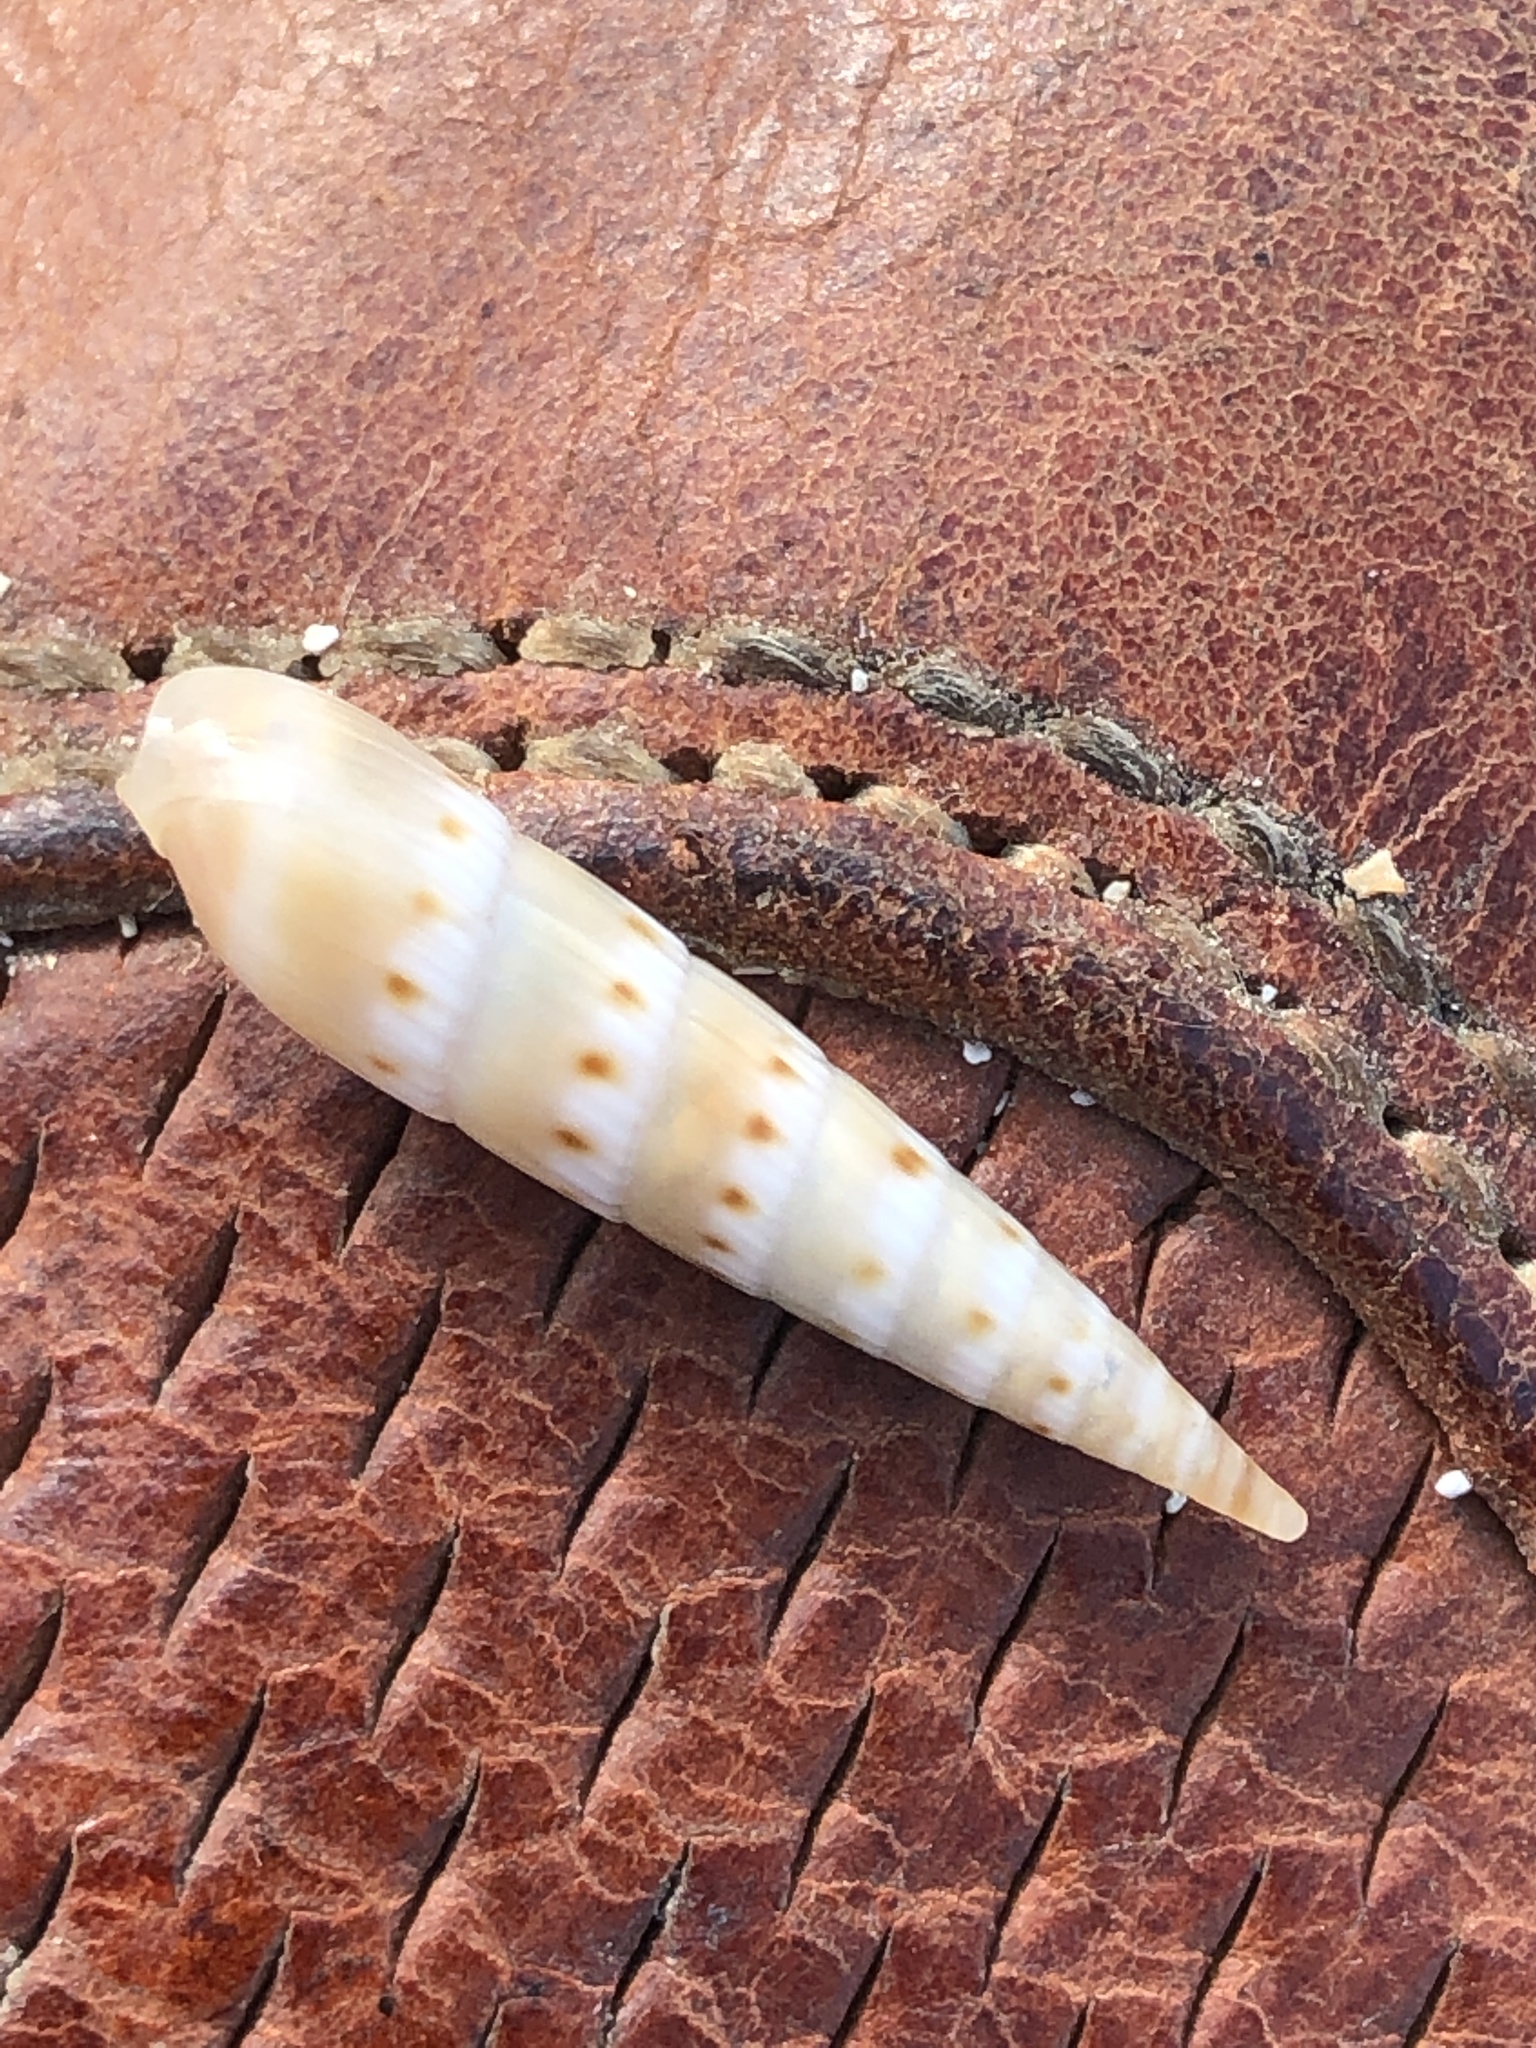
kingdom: Animalia
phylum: Mollusca
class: Gastropoda
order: Neogastropoda
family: Terebridae
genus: Hastula
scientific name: Hastula nipponensis
